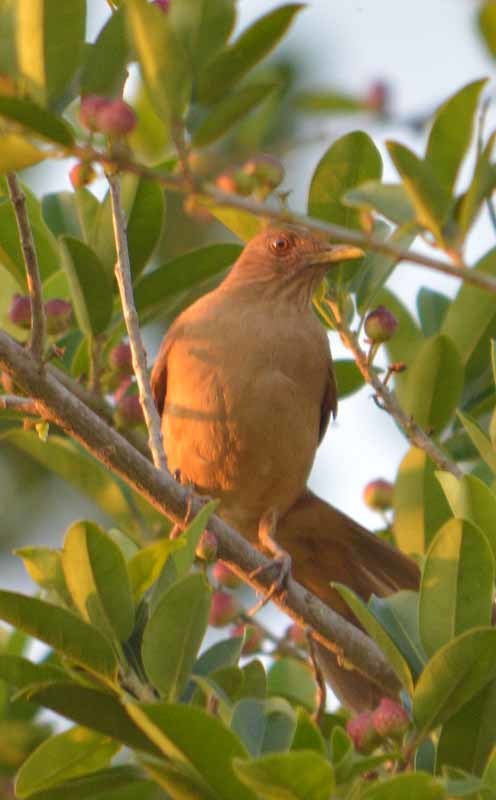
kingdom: Animalia
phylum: Chordata
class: Aves
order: Passeriformes
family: Turdidae
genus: Turdus
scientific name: Turdus grayi
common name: Clay-colored thrush
